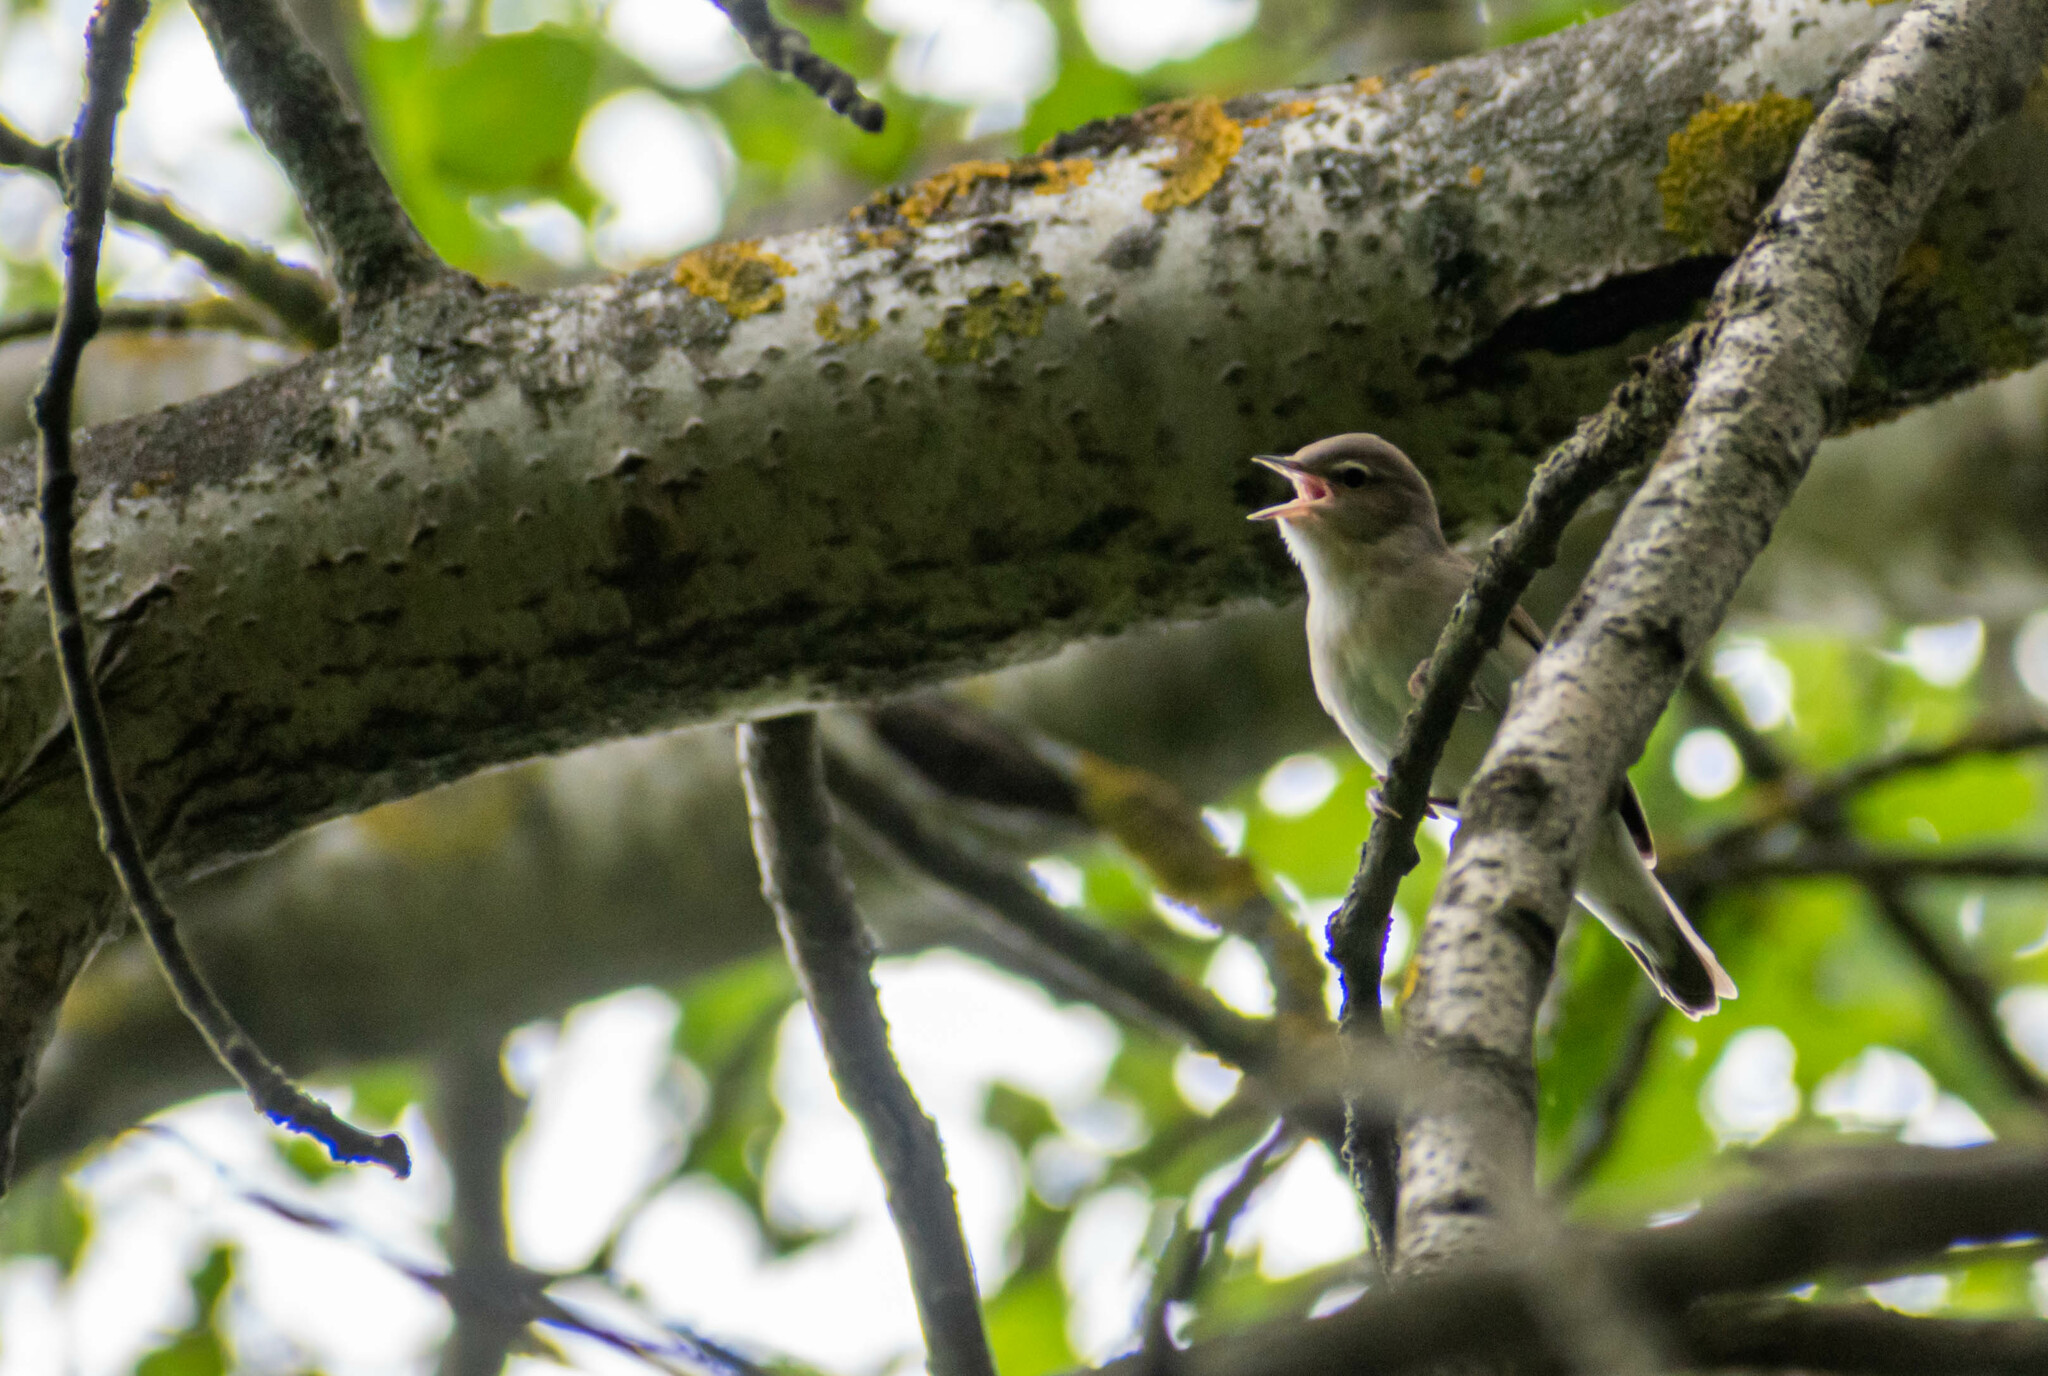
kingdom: Animalia
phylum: Chordata
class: Aves
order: Passeriformes
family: Sylviidae
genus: Sylvia
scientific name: Sylvia borin
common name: Garden warbler
